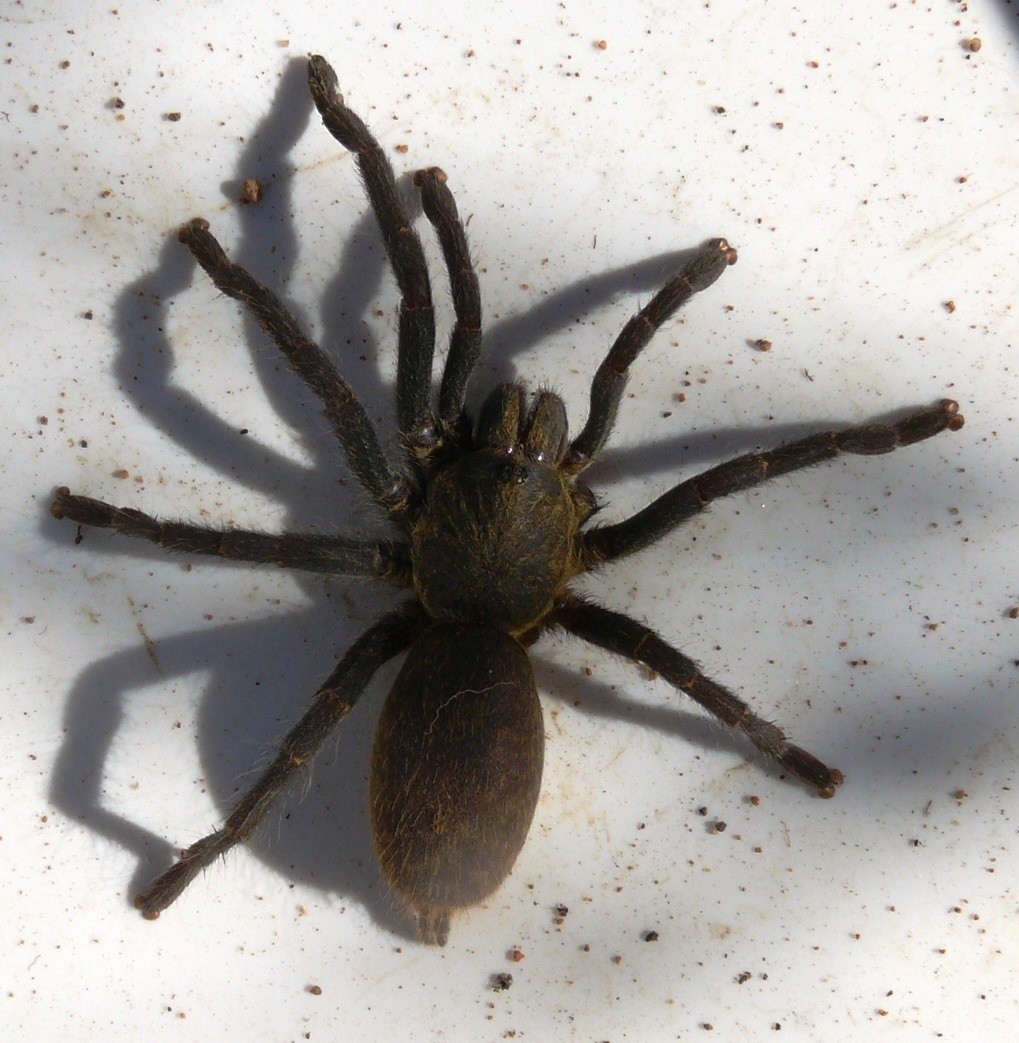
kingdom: Animalia
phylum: Arthropoda
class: Arachnida
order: Araneae
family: Theraphosidae
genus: Harpactira
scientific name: Harpactira marksi
